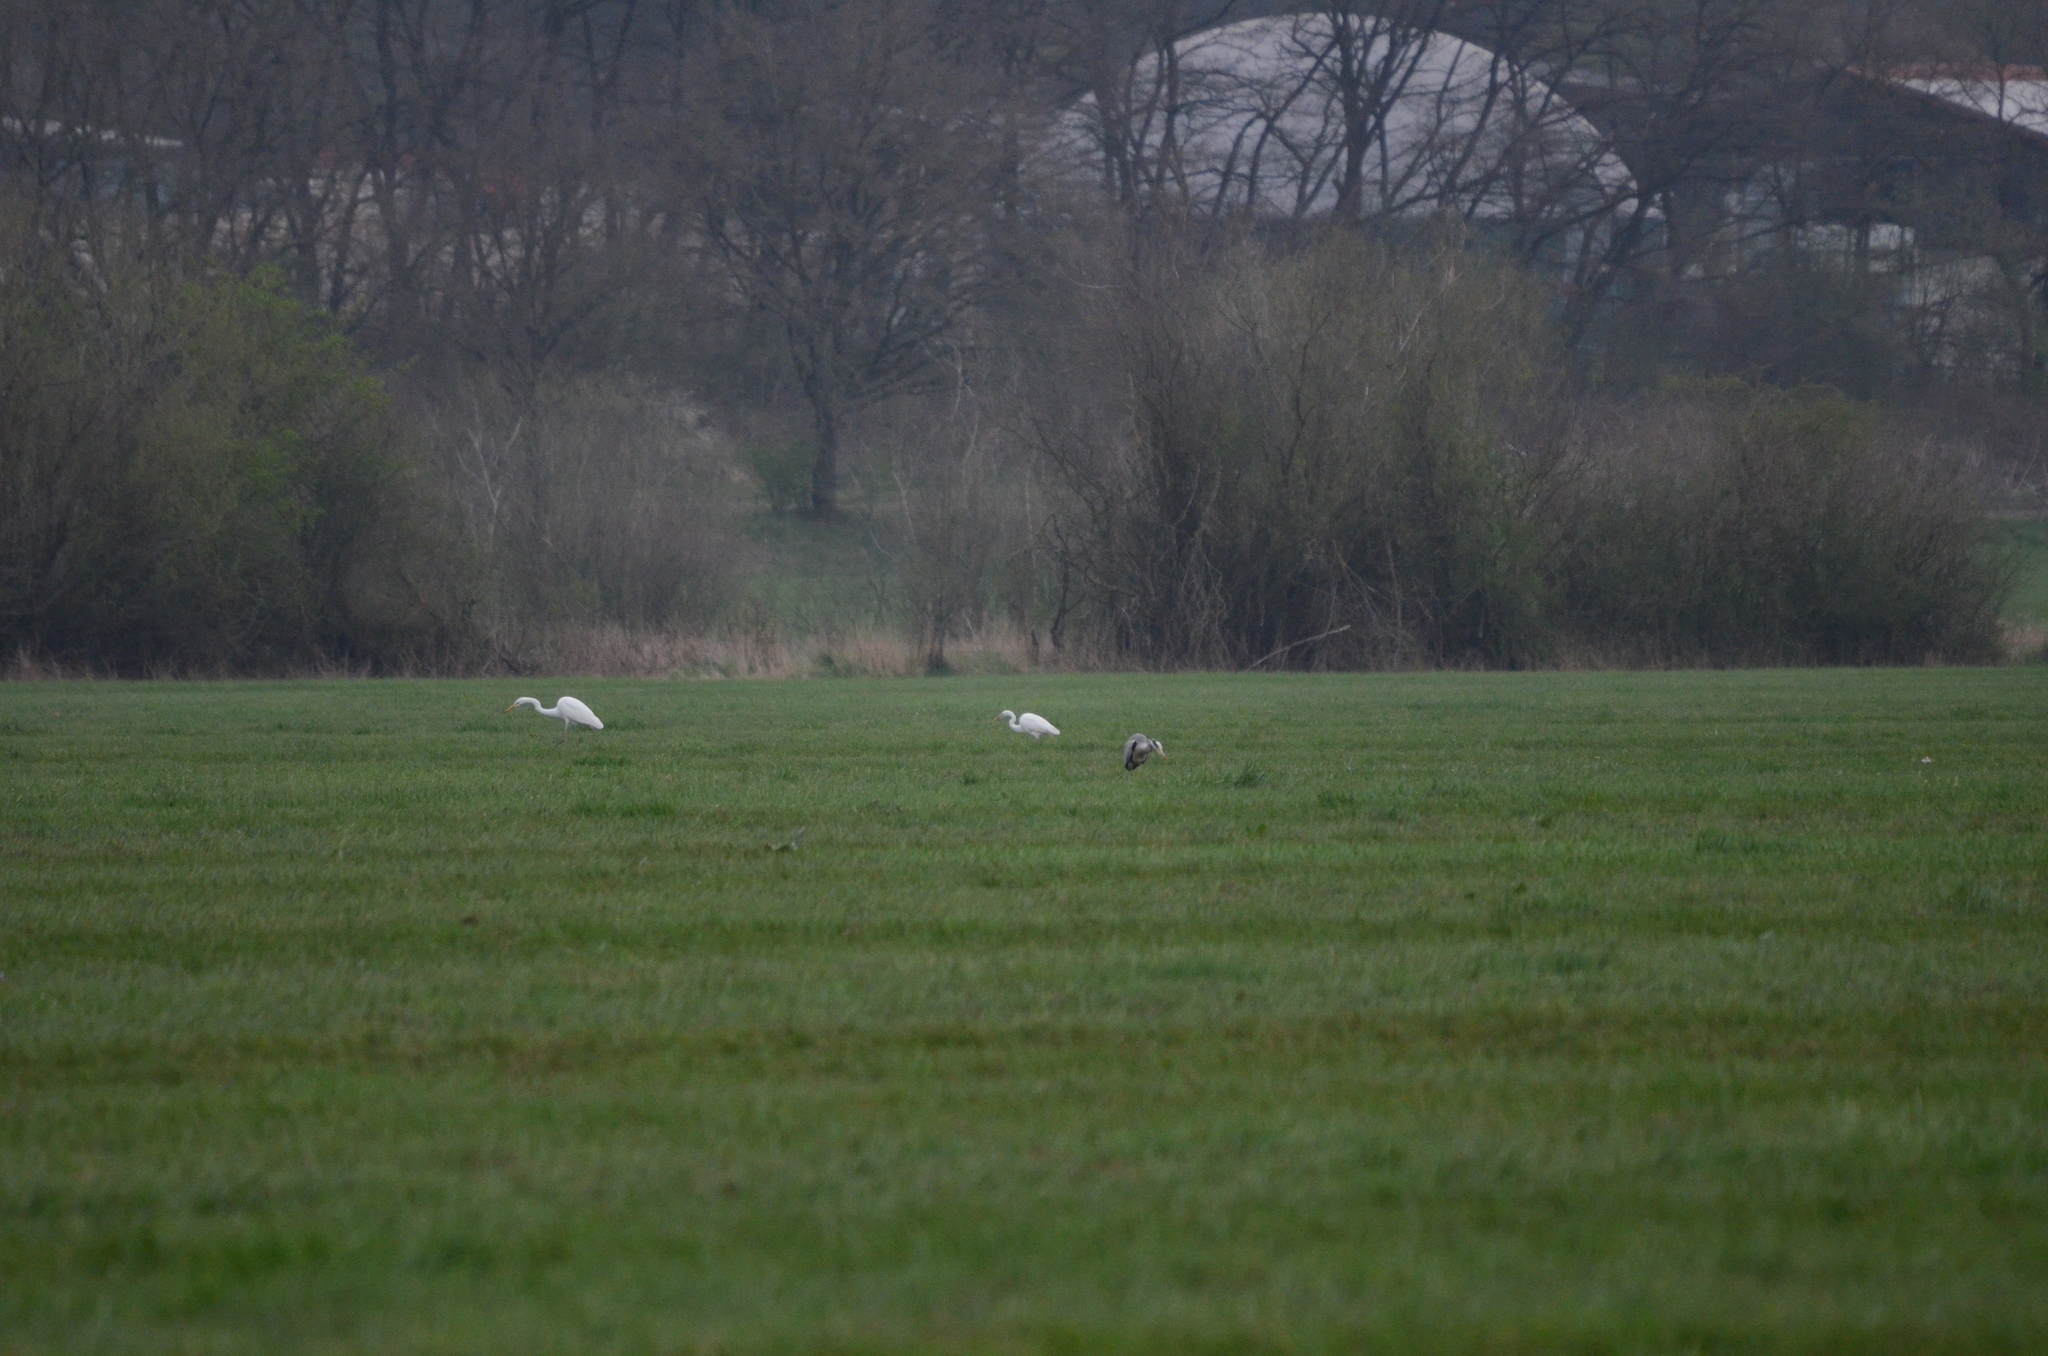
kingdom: Animalia
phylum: Chordata
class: Aves
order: Pelecaniformes
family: Ardeidae
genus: Ardea
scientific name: Ardea alba
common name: Great egret
